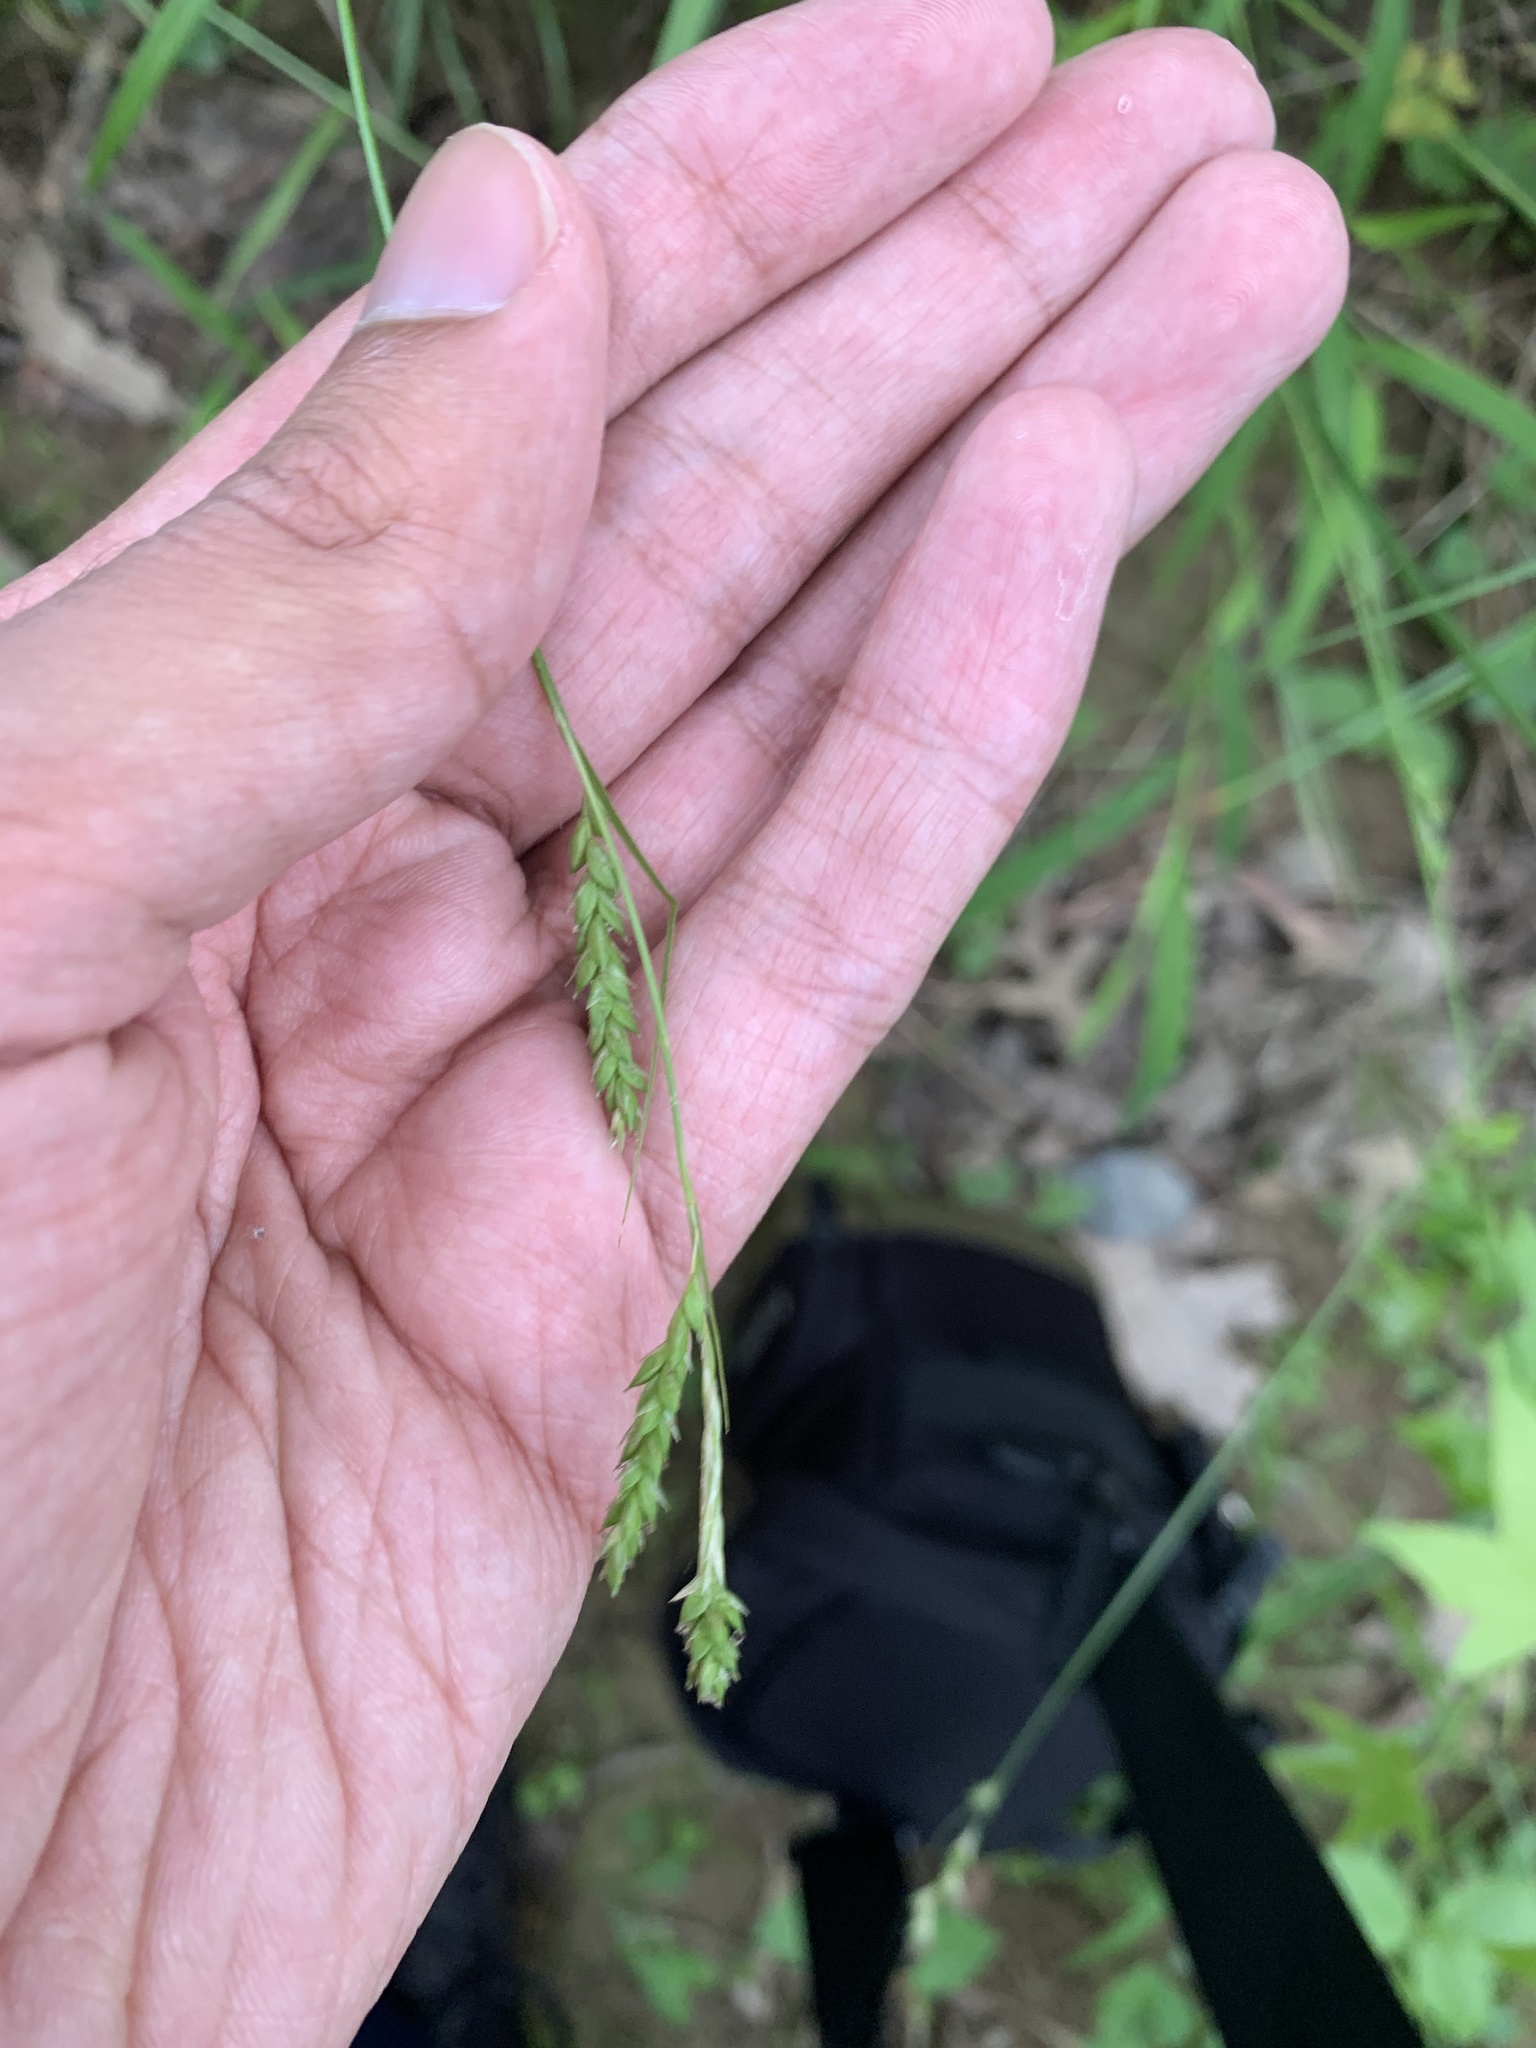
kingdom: Plantae
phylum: Tracheophyta
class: Liliopsida
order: Poales
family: Cyperaceae
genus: Carex
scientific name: Carex oxylepis
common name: Sharpscale sedge
